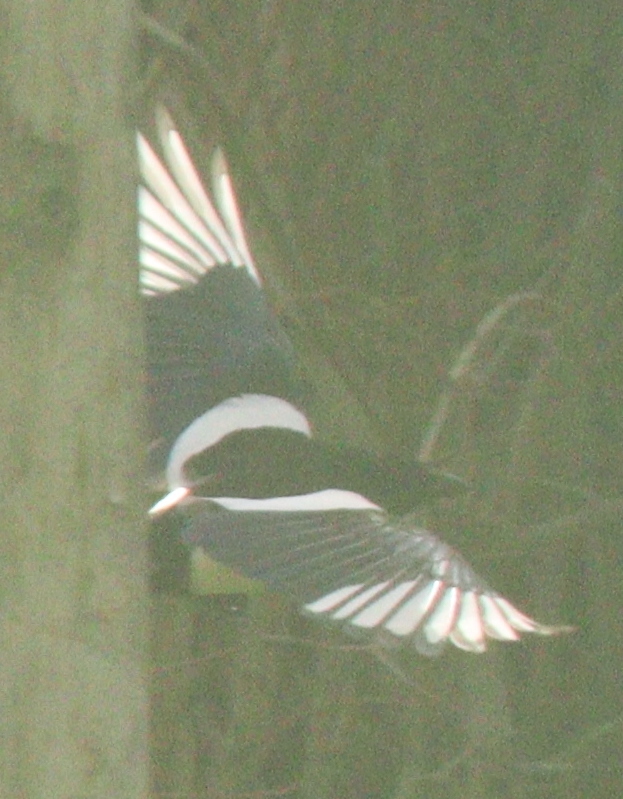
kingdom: Animalia
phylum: Chordata
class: Aves
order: Passeriformes
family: Corvidae
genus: Pica
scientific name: Pica pica
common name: Eurasian magpie
